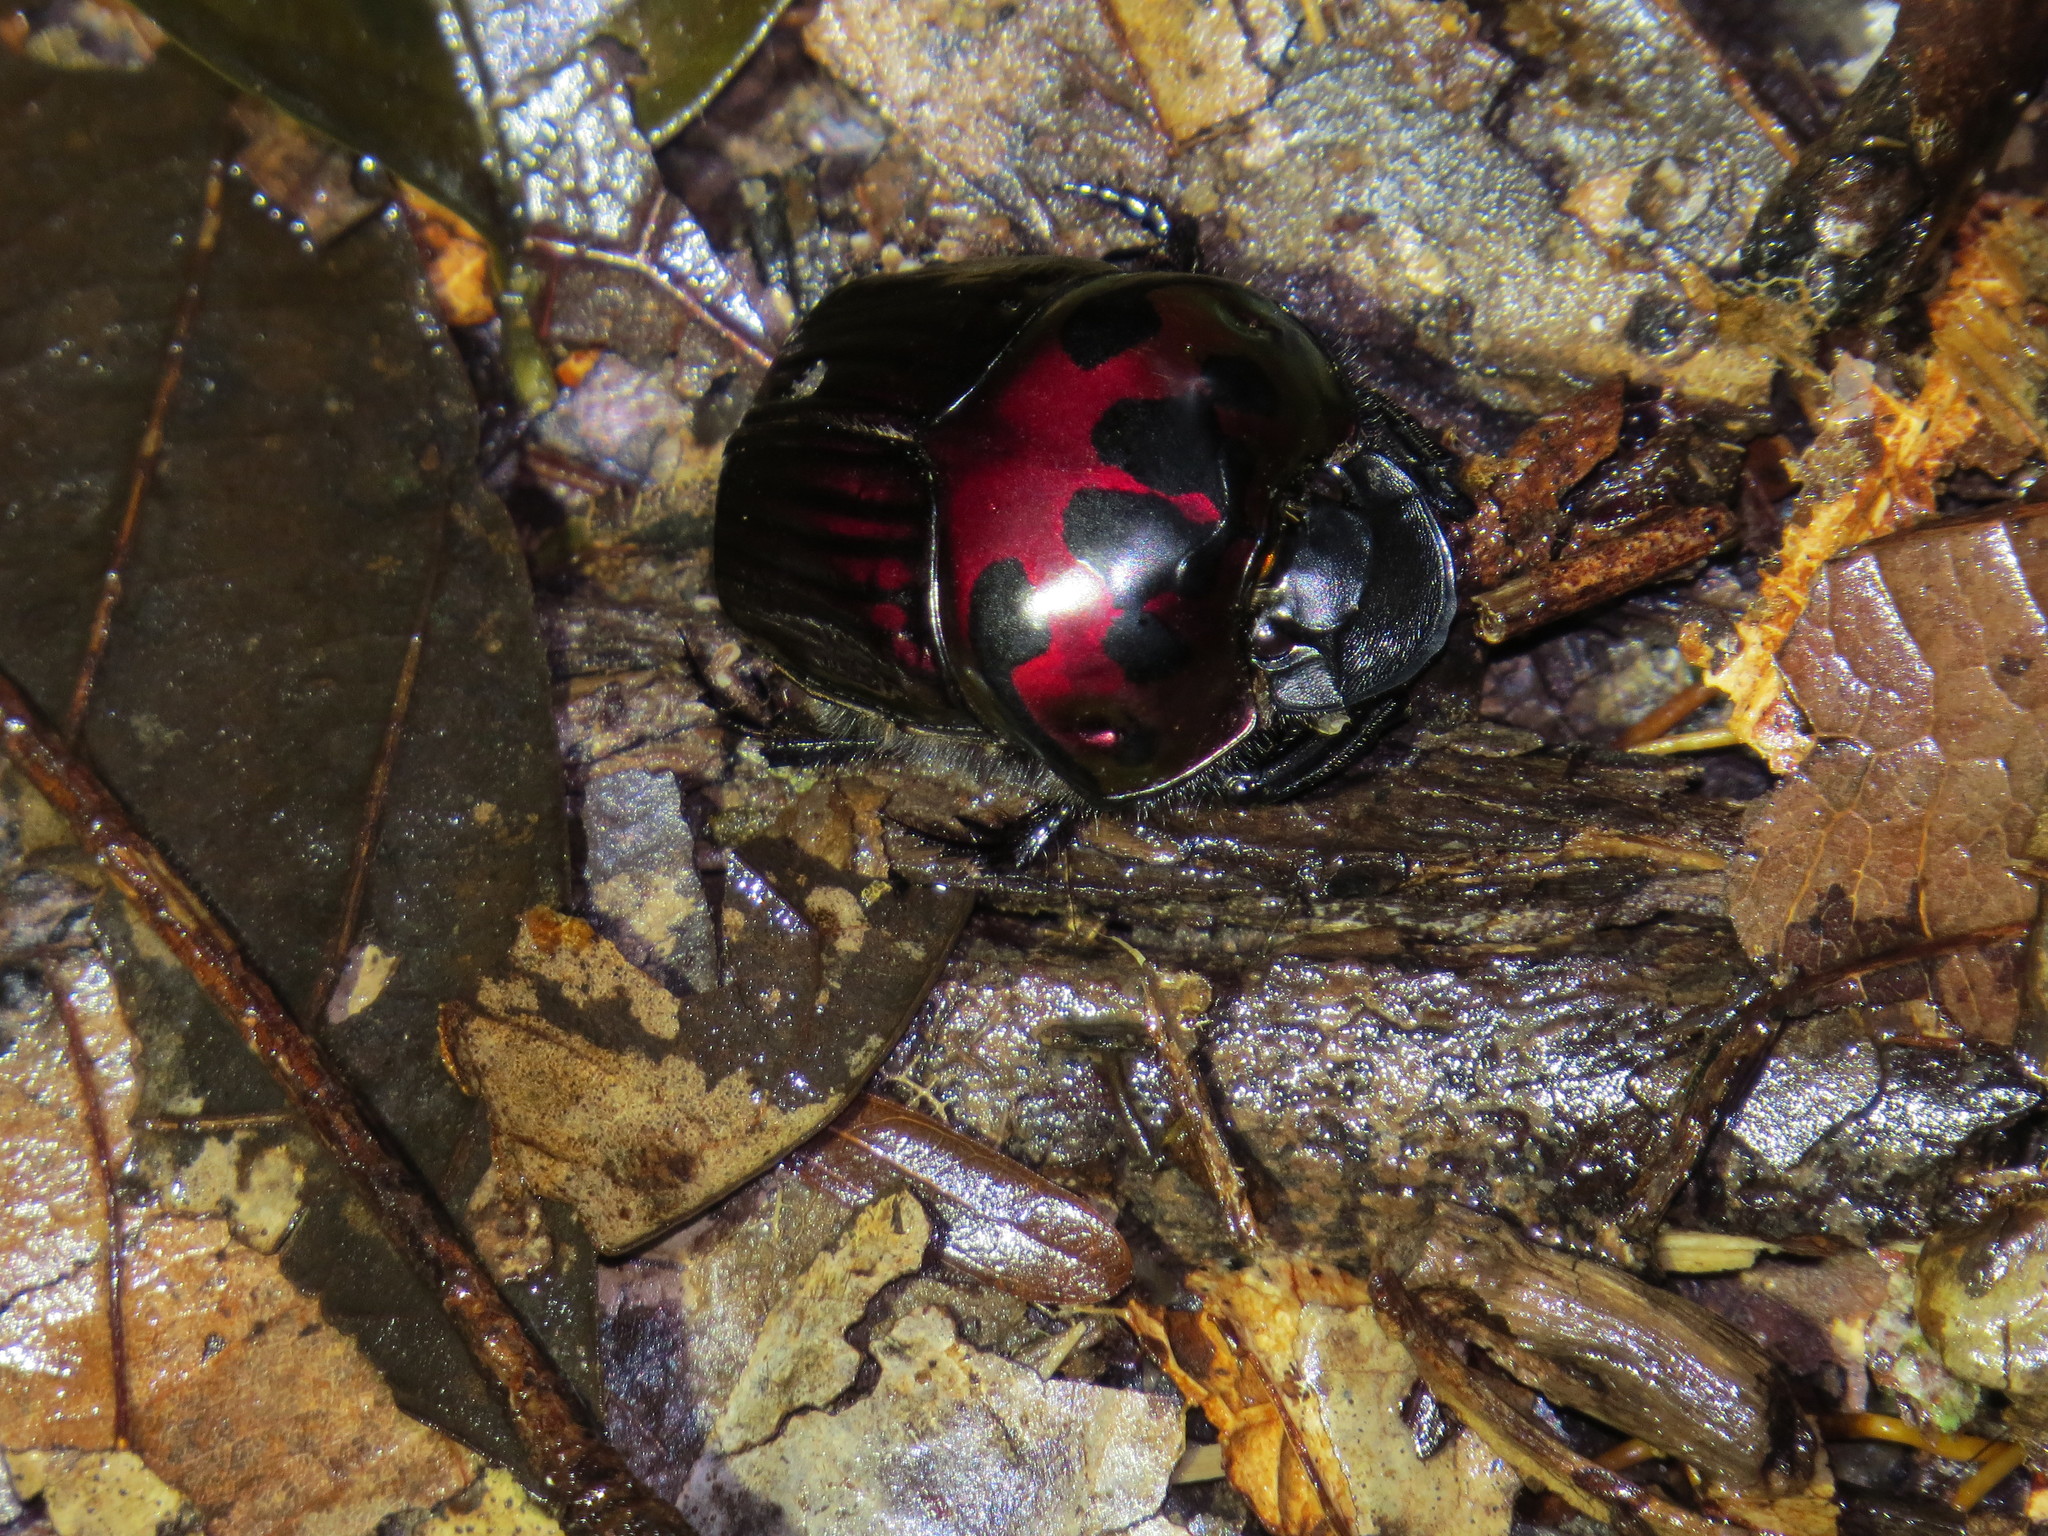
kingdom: Animalia
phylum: Arthropoda
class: Insecta
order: Coleoptera
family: Scarabaeidae
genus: Oxysternon
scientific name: Oxysternon festivum
